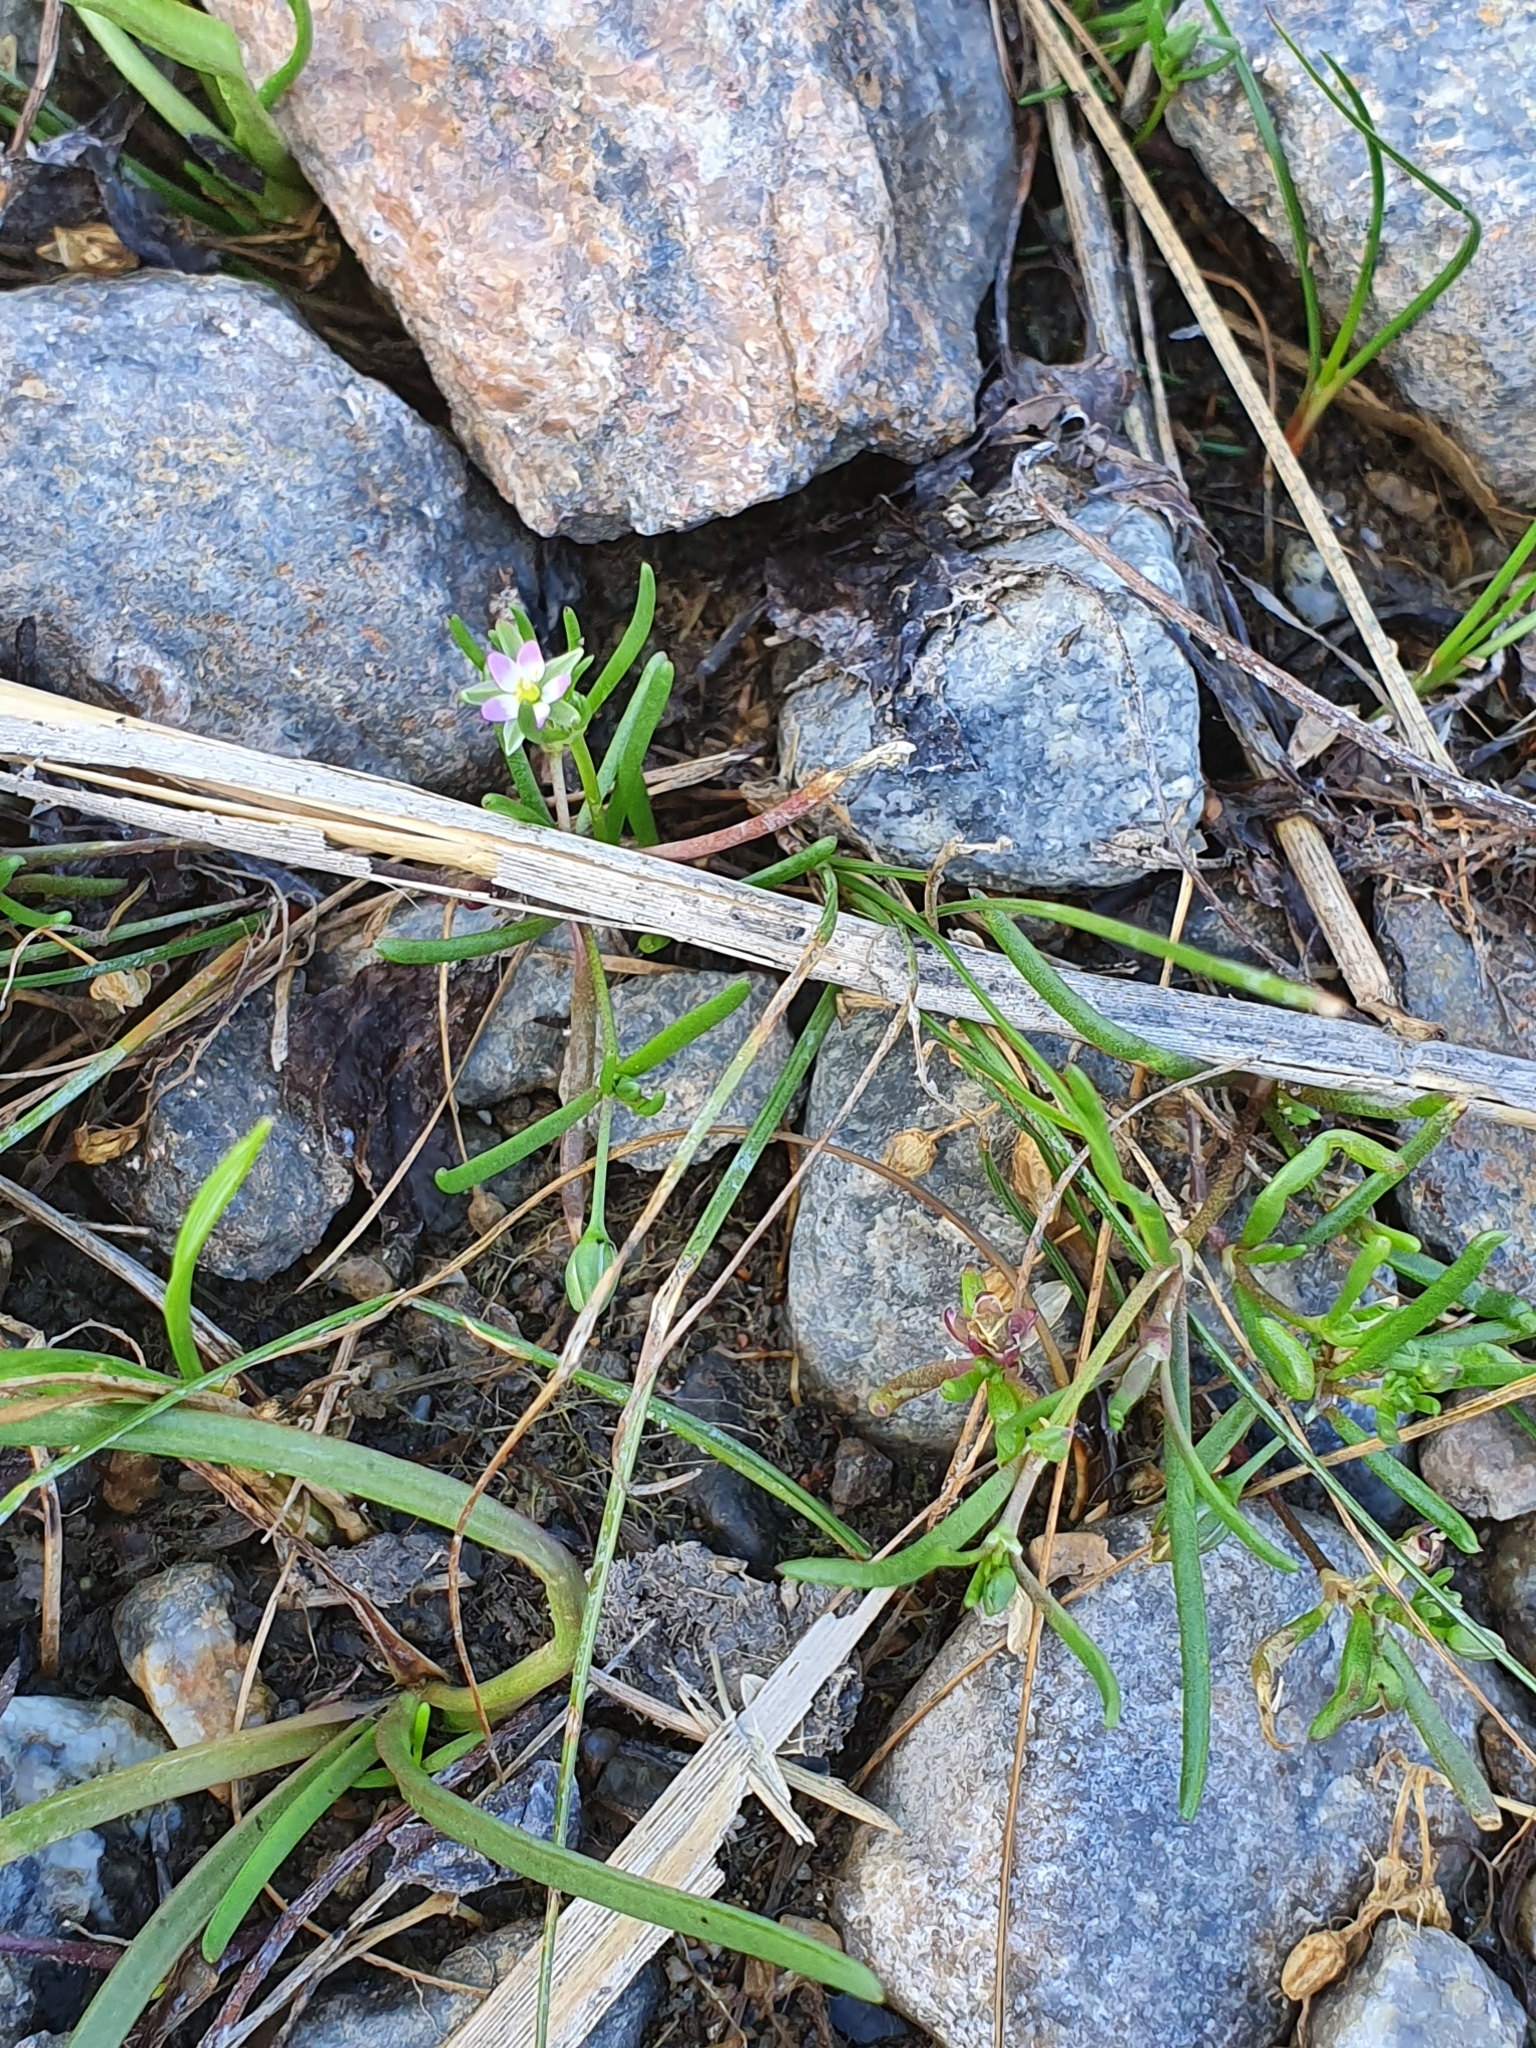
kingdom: Plantae
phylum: Tracheophyta
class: Magnoliopsida
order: Caryophyllales
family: Caryophyllaceae
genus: Spergularia
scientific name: Spergularia marina
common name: Lesser sea-spurrey
